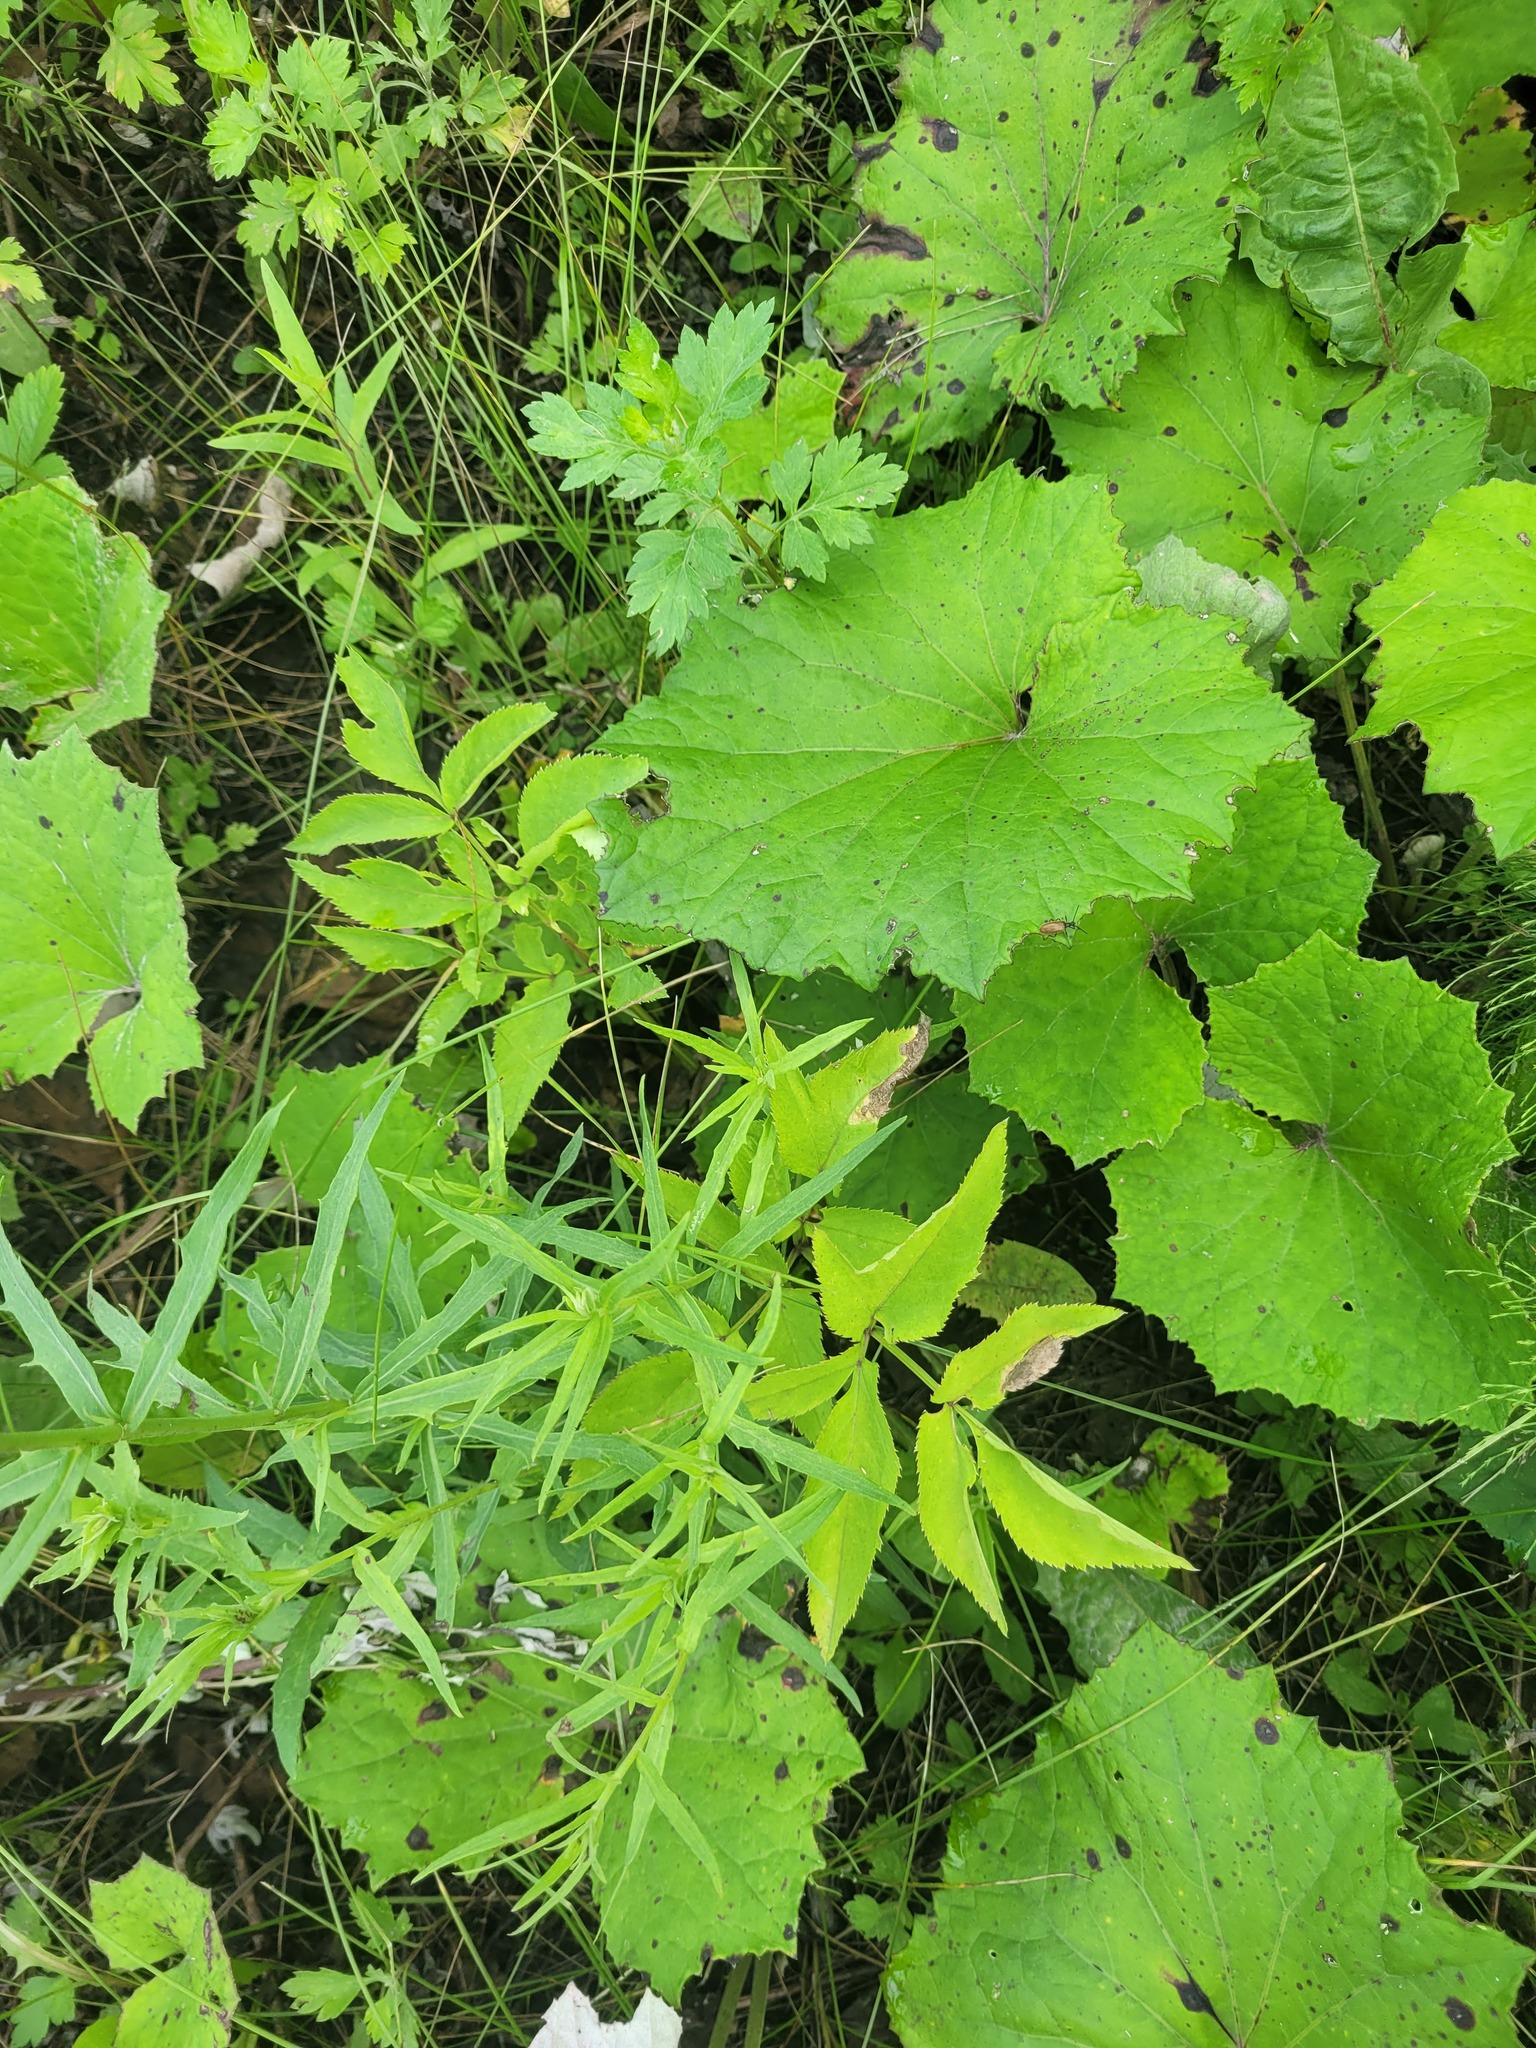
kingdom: Plantae
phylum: Tracheophyta
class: Magnoliopsida
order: Apiales
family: Apiaceae
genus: Angelica
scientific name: Angelica sylvestris
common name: Wild angelica
